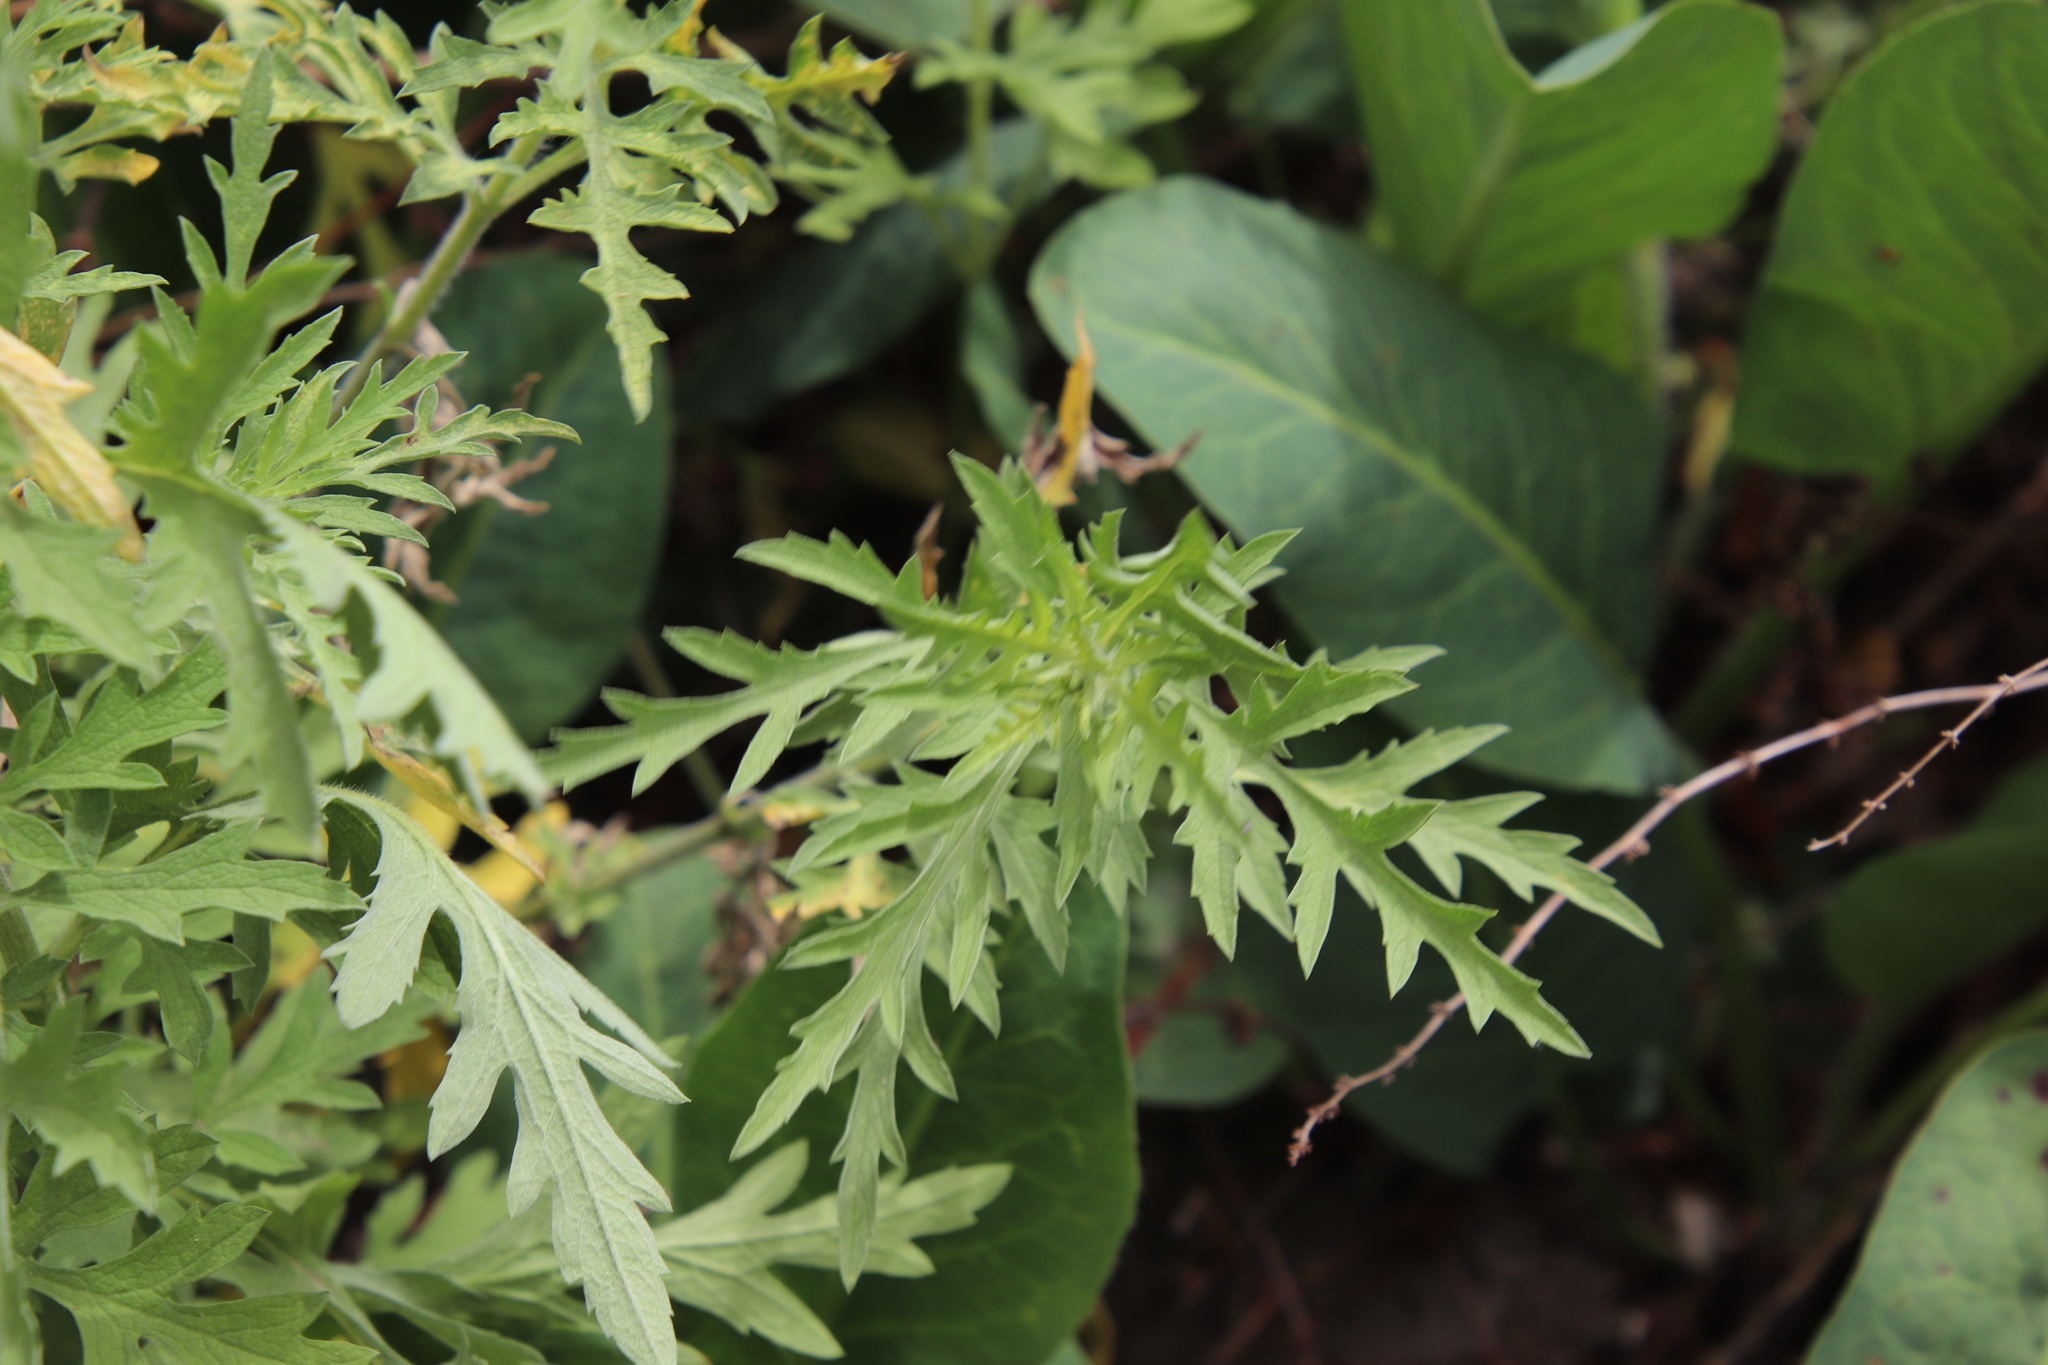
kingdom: Plantae
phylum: Tracheophyta
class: Magnoliopsida
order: Asterales
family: Asteraceae
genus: Ambrosia
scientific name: Ambrosia psilostachya
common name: Perennial ragweed
